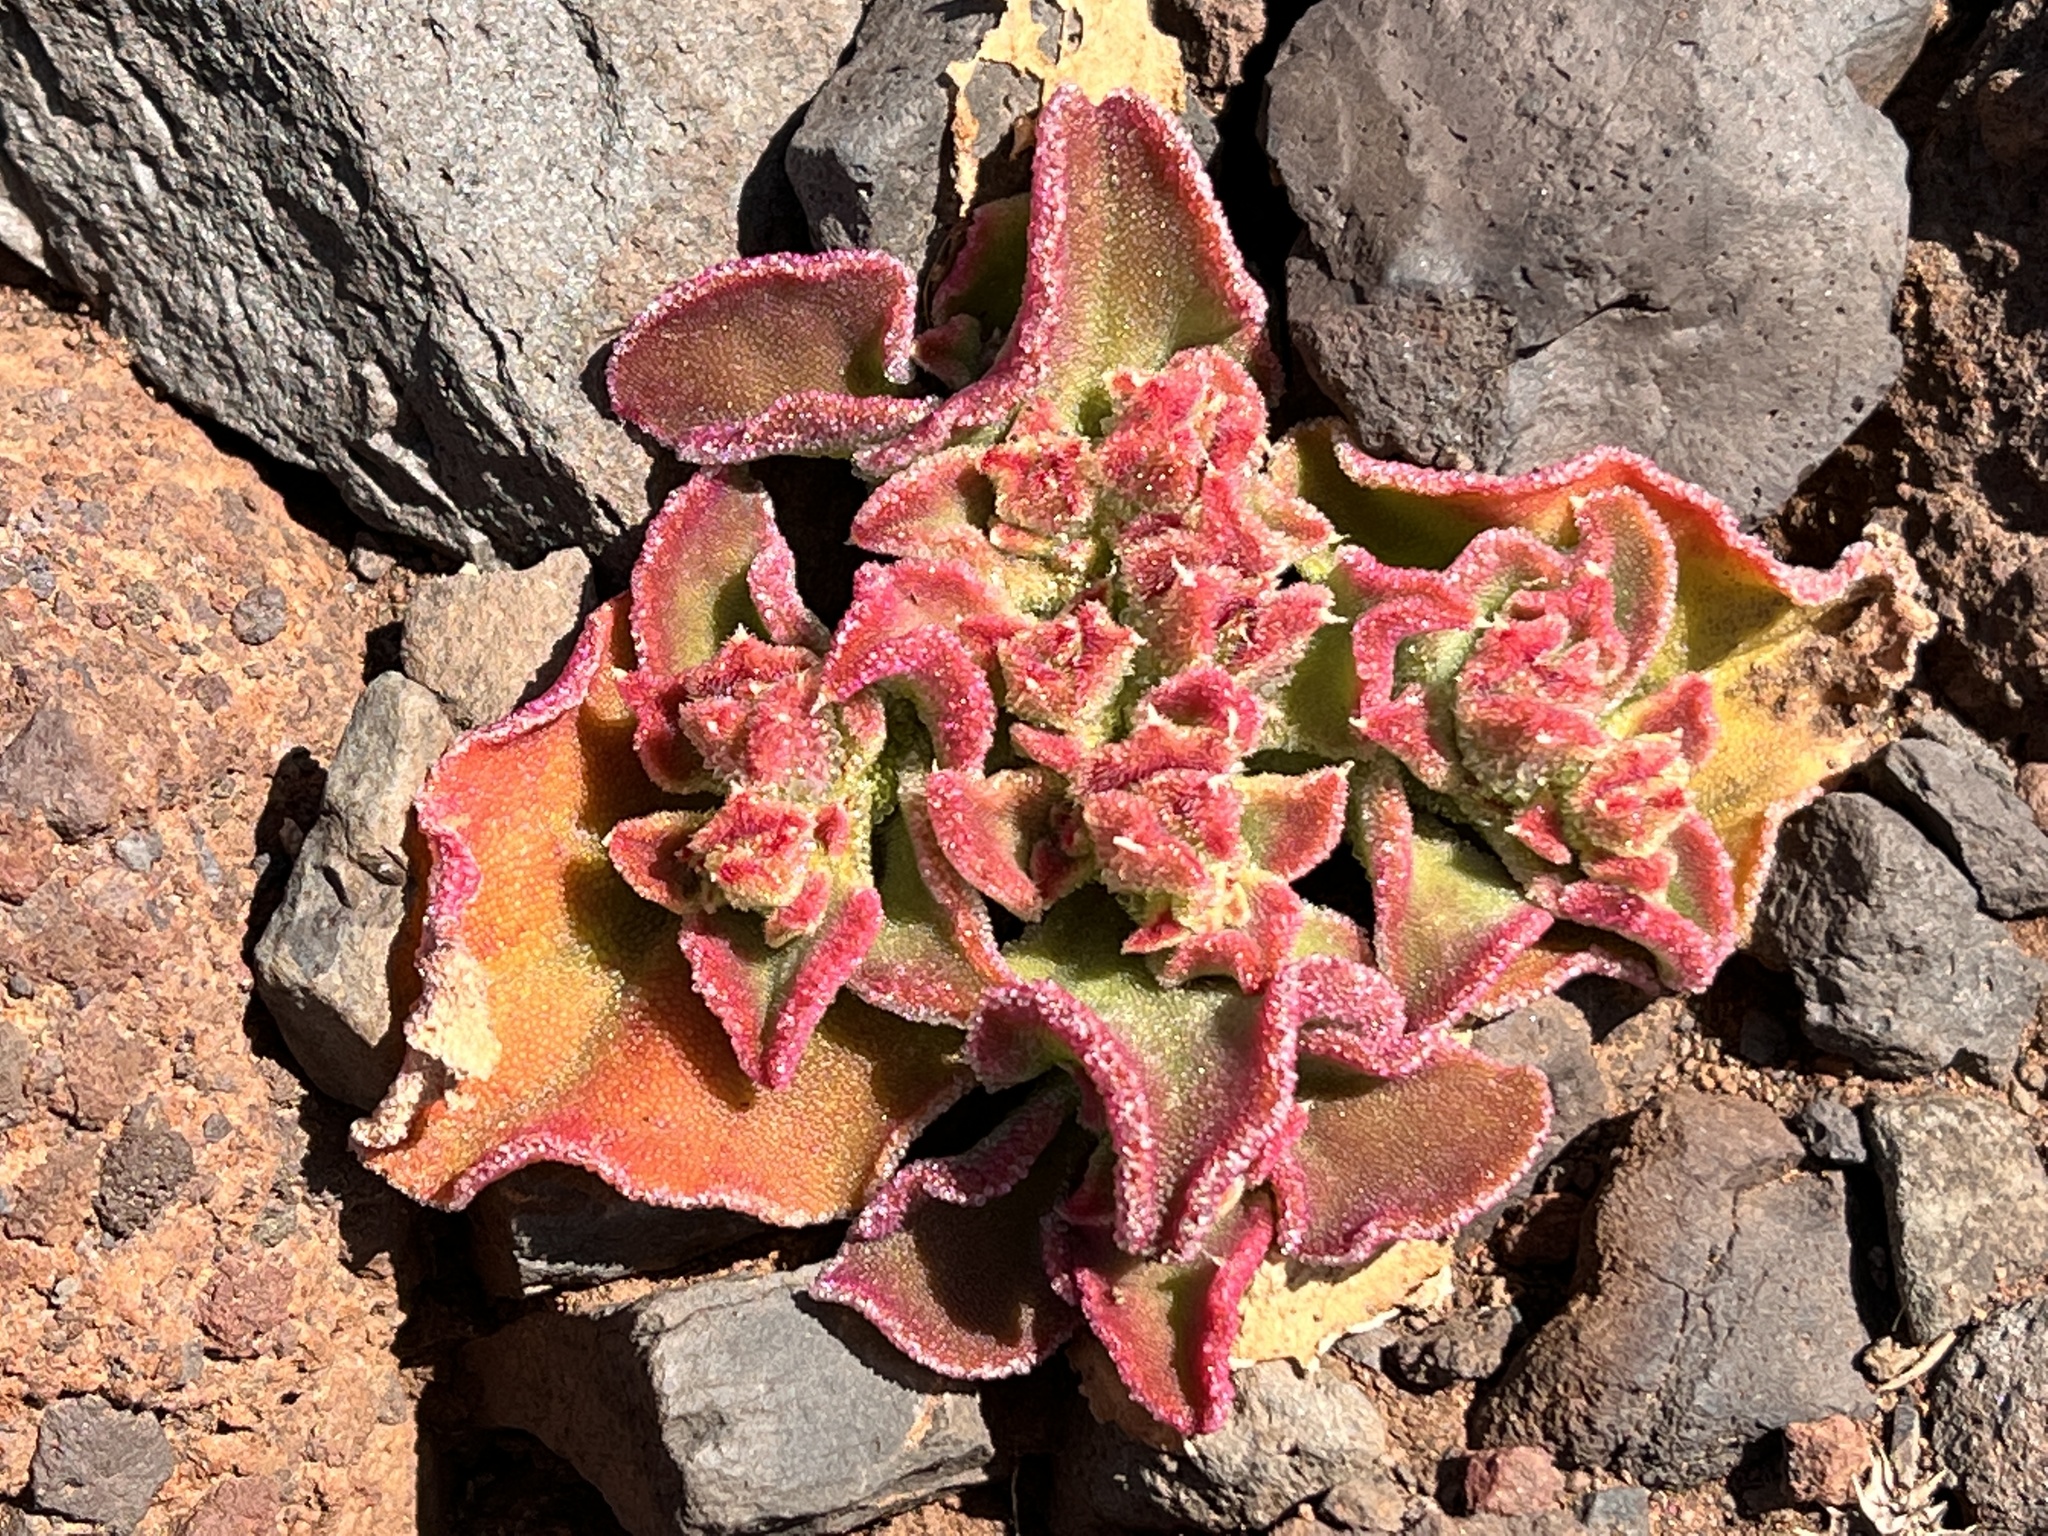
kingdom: Plantae
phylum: Tracheophyta
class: Magnoliopsida
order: Caryophyllales
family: Aizoaceae
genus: Mesembryanthemum
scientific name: Mesembryanthemum crystallinum
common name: Common iceplant
